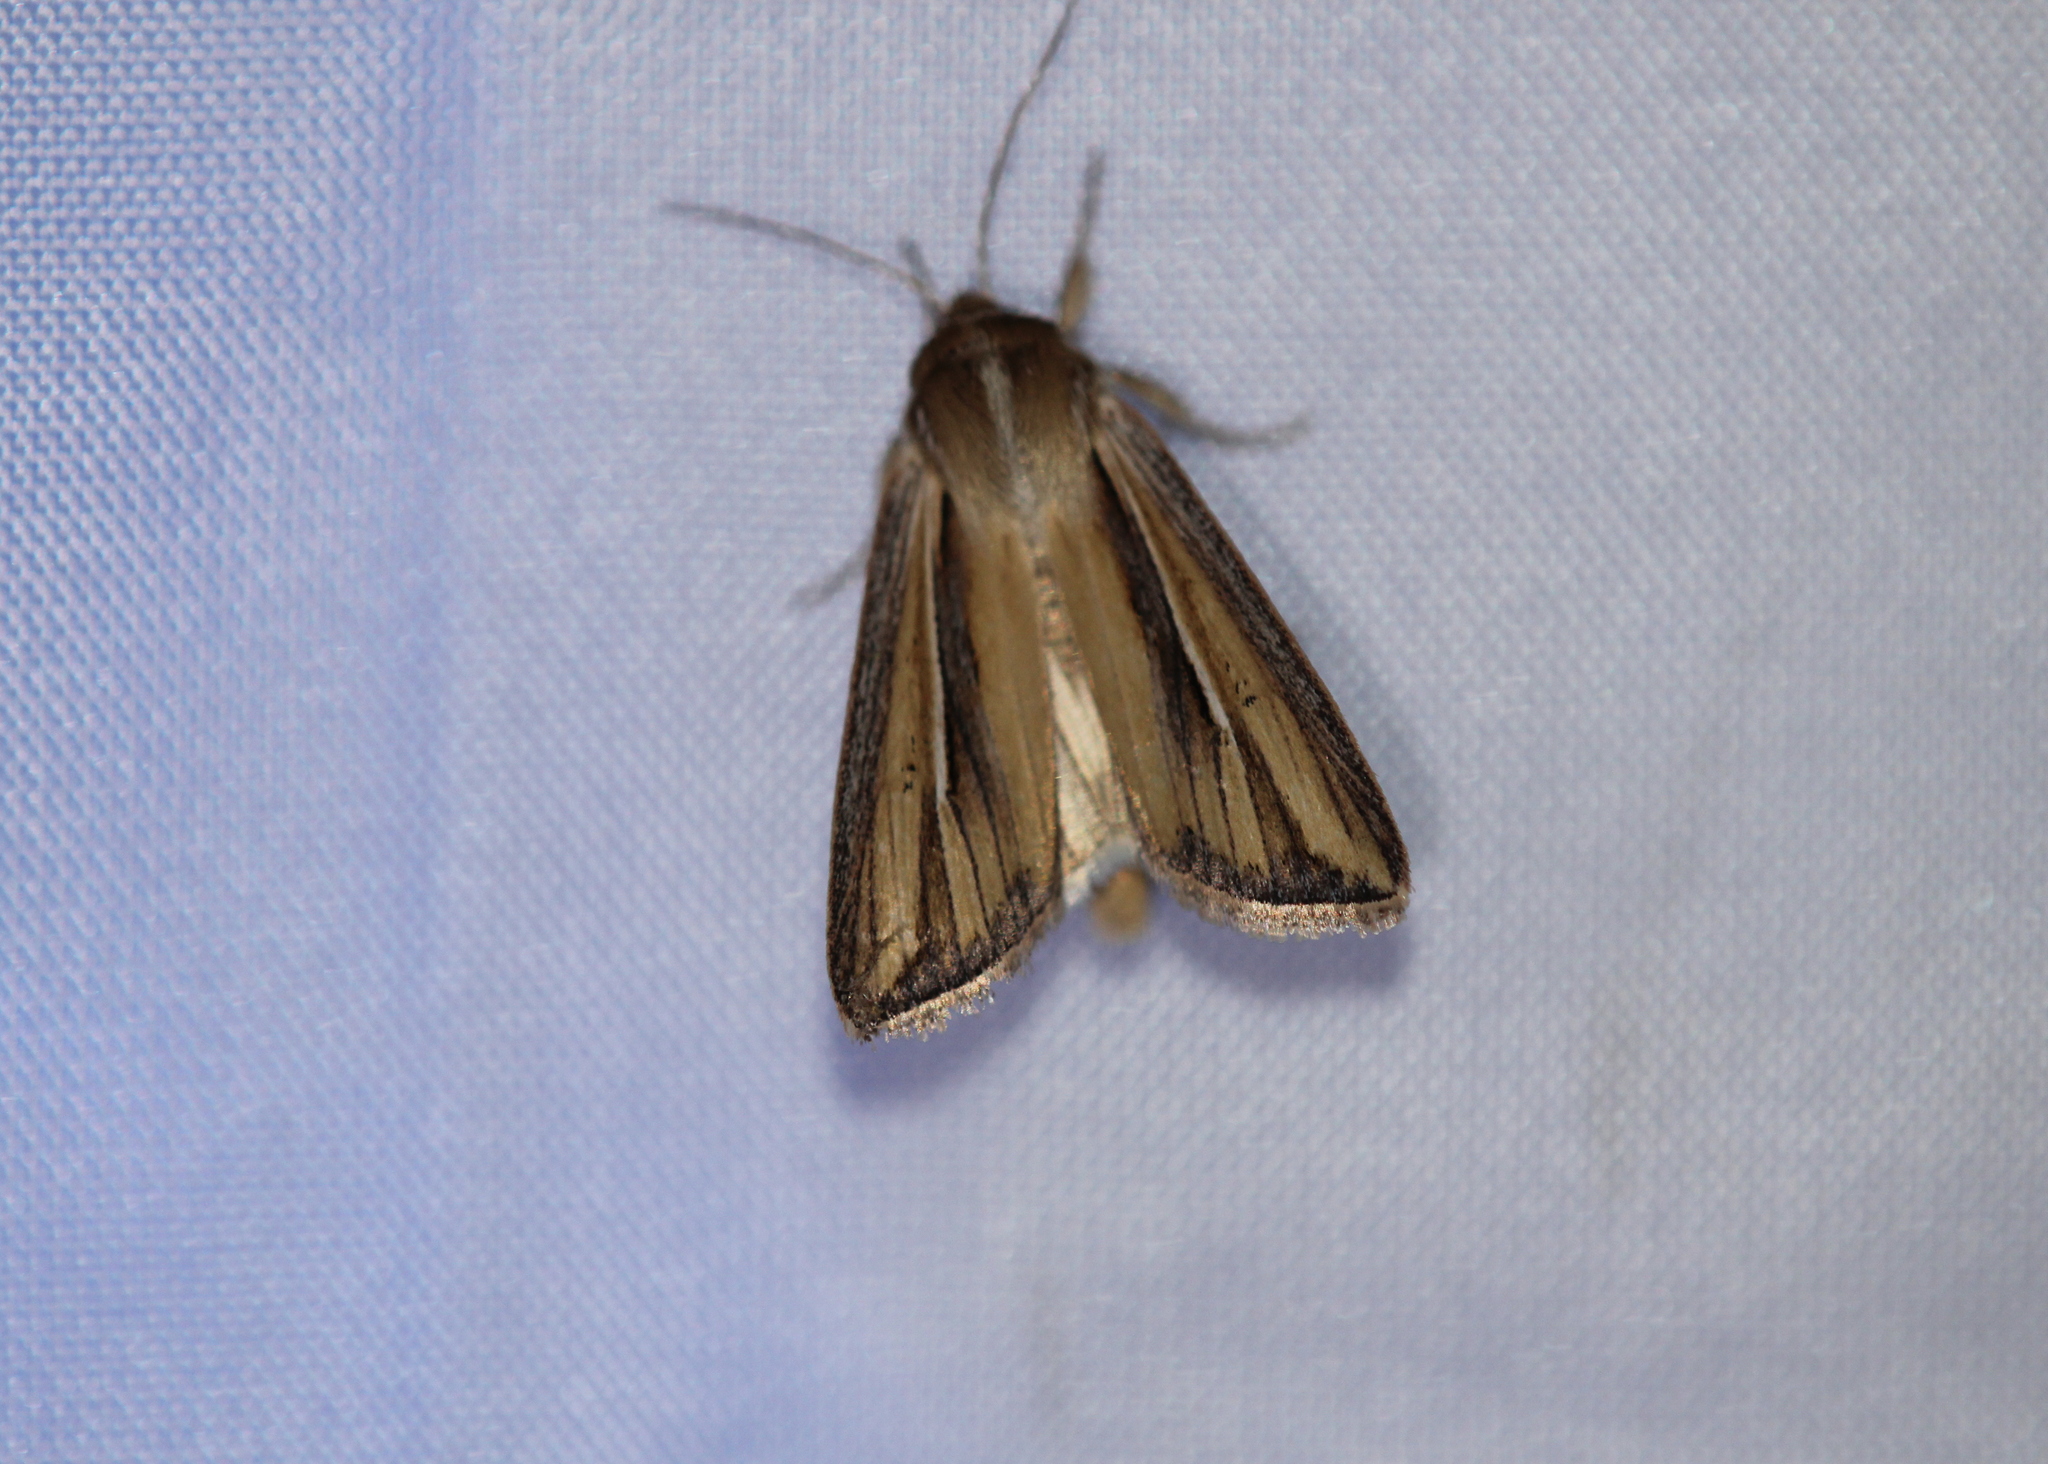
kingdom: Animalia
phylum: Arthropoda
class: Insecta
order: Lepidoptera
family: Noctuidae
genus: Dargida
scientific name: Dargida diffusa
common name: Wheat head armyworm
